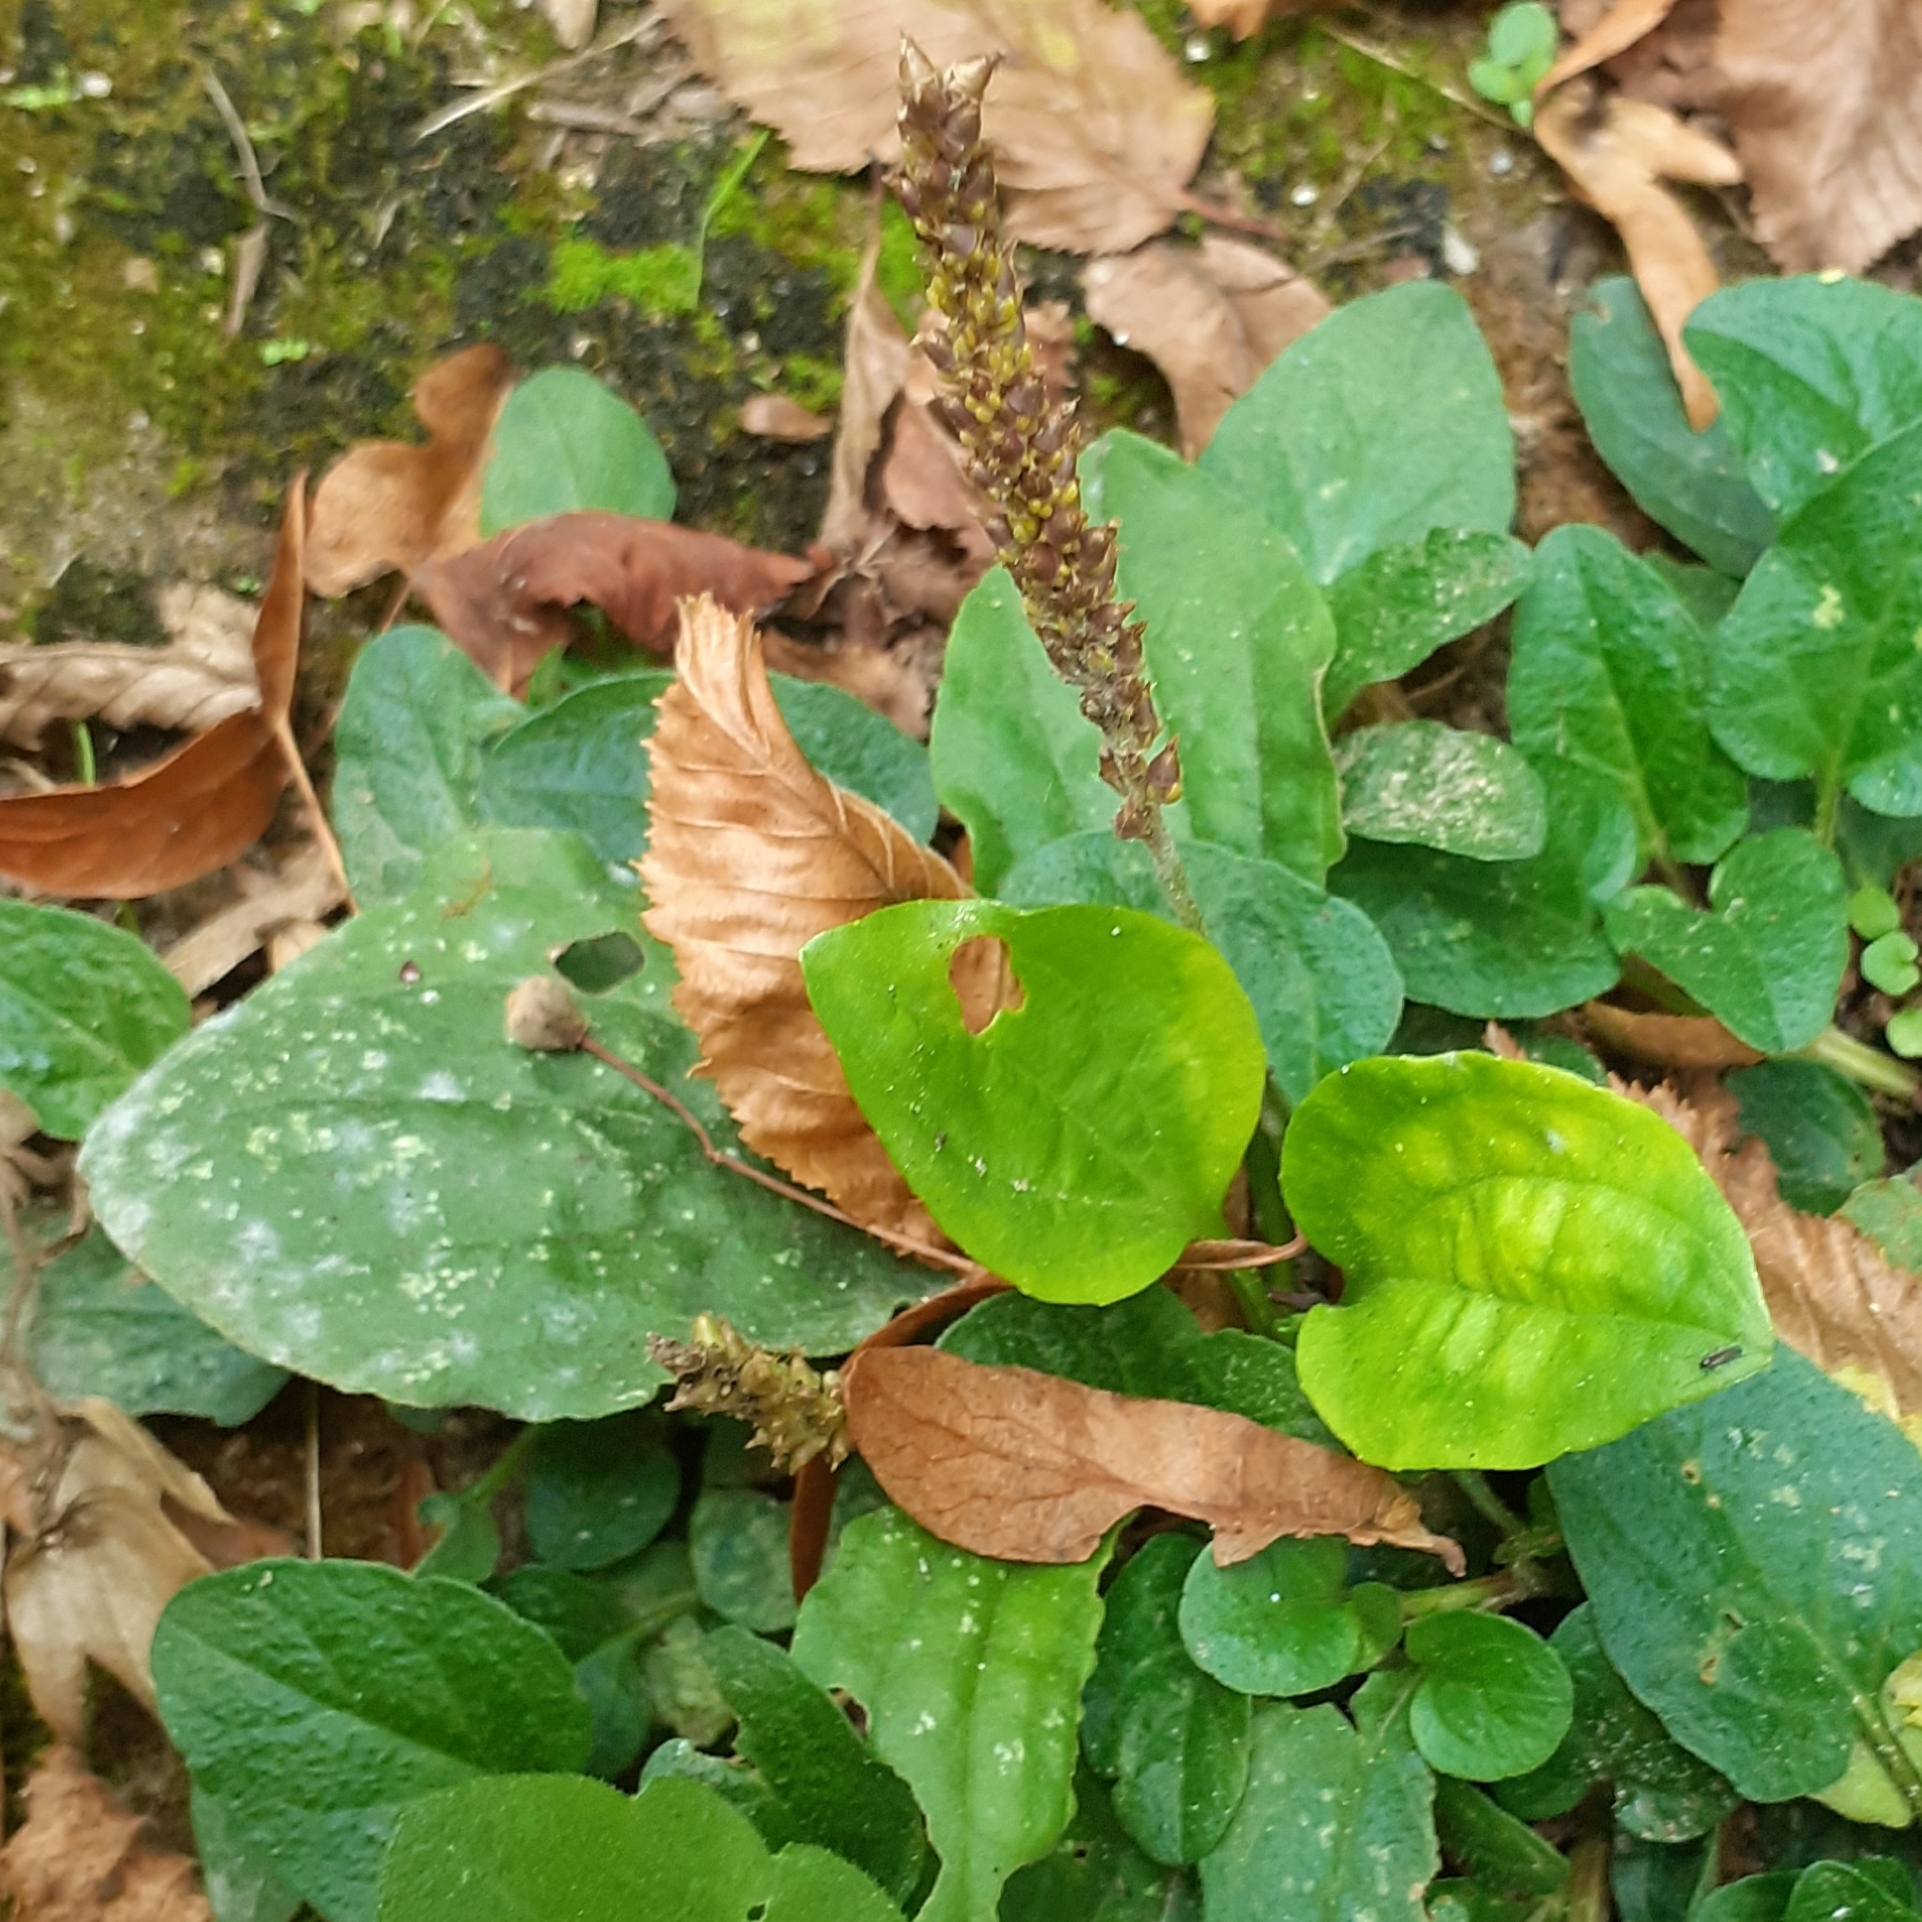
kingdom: Plantae
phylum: Tracheophyta
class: Magnoliopsida
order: Lamiales
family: Plantaginaceae
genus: Plantago
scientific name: Plantago major
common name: Common plantain
